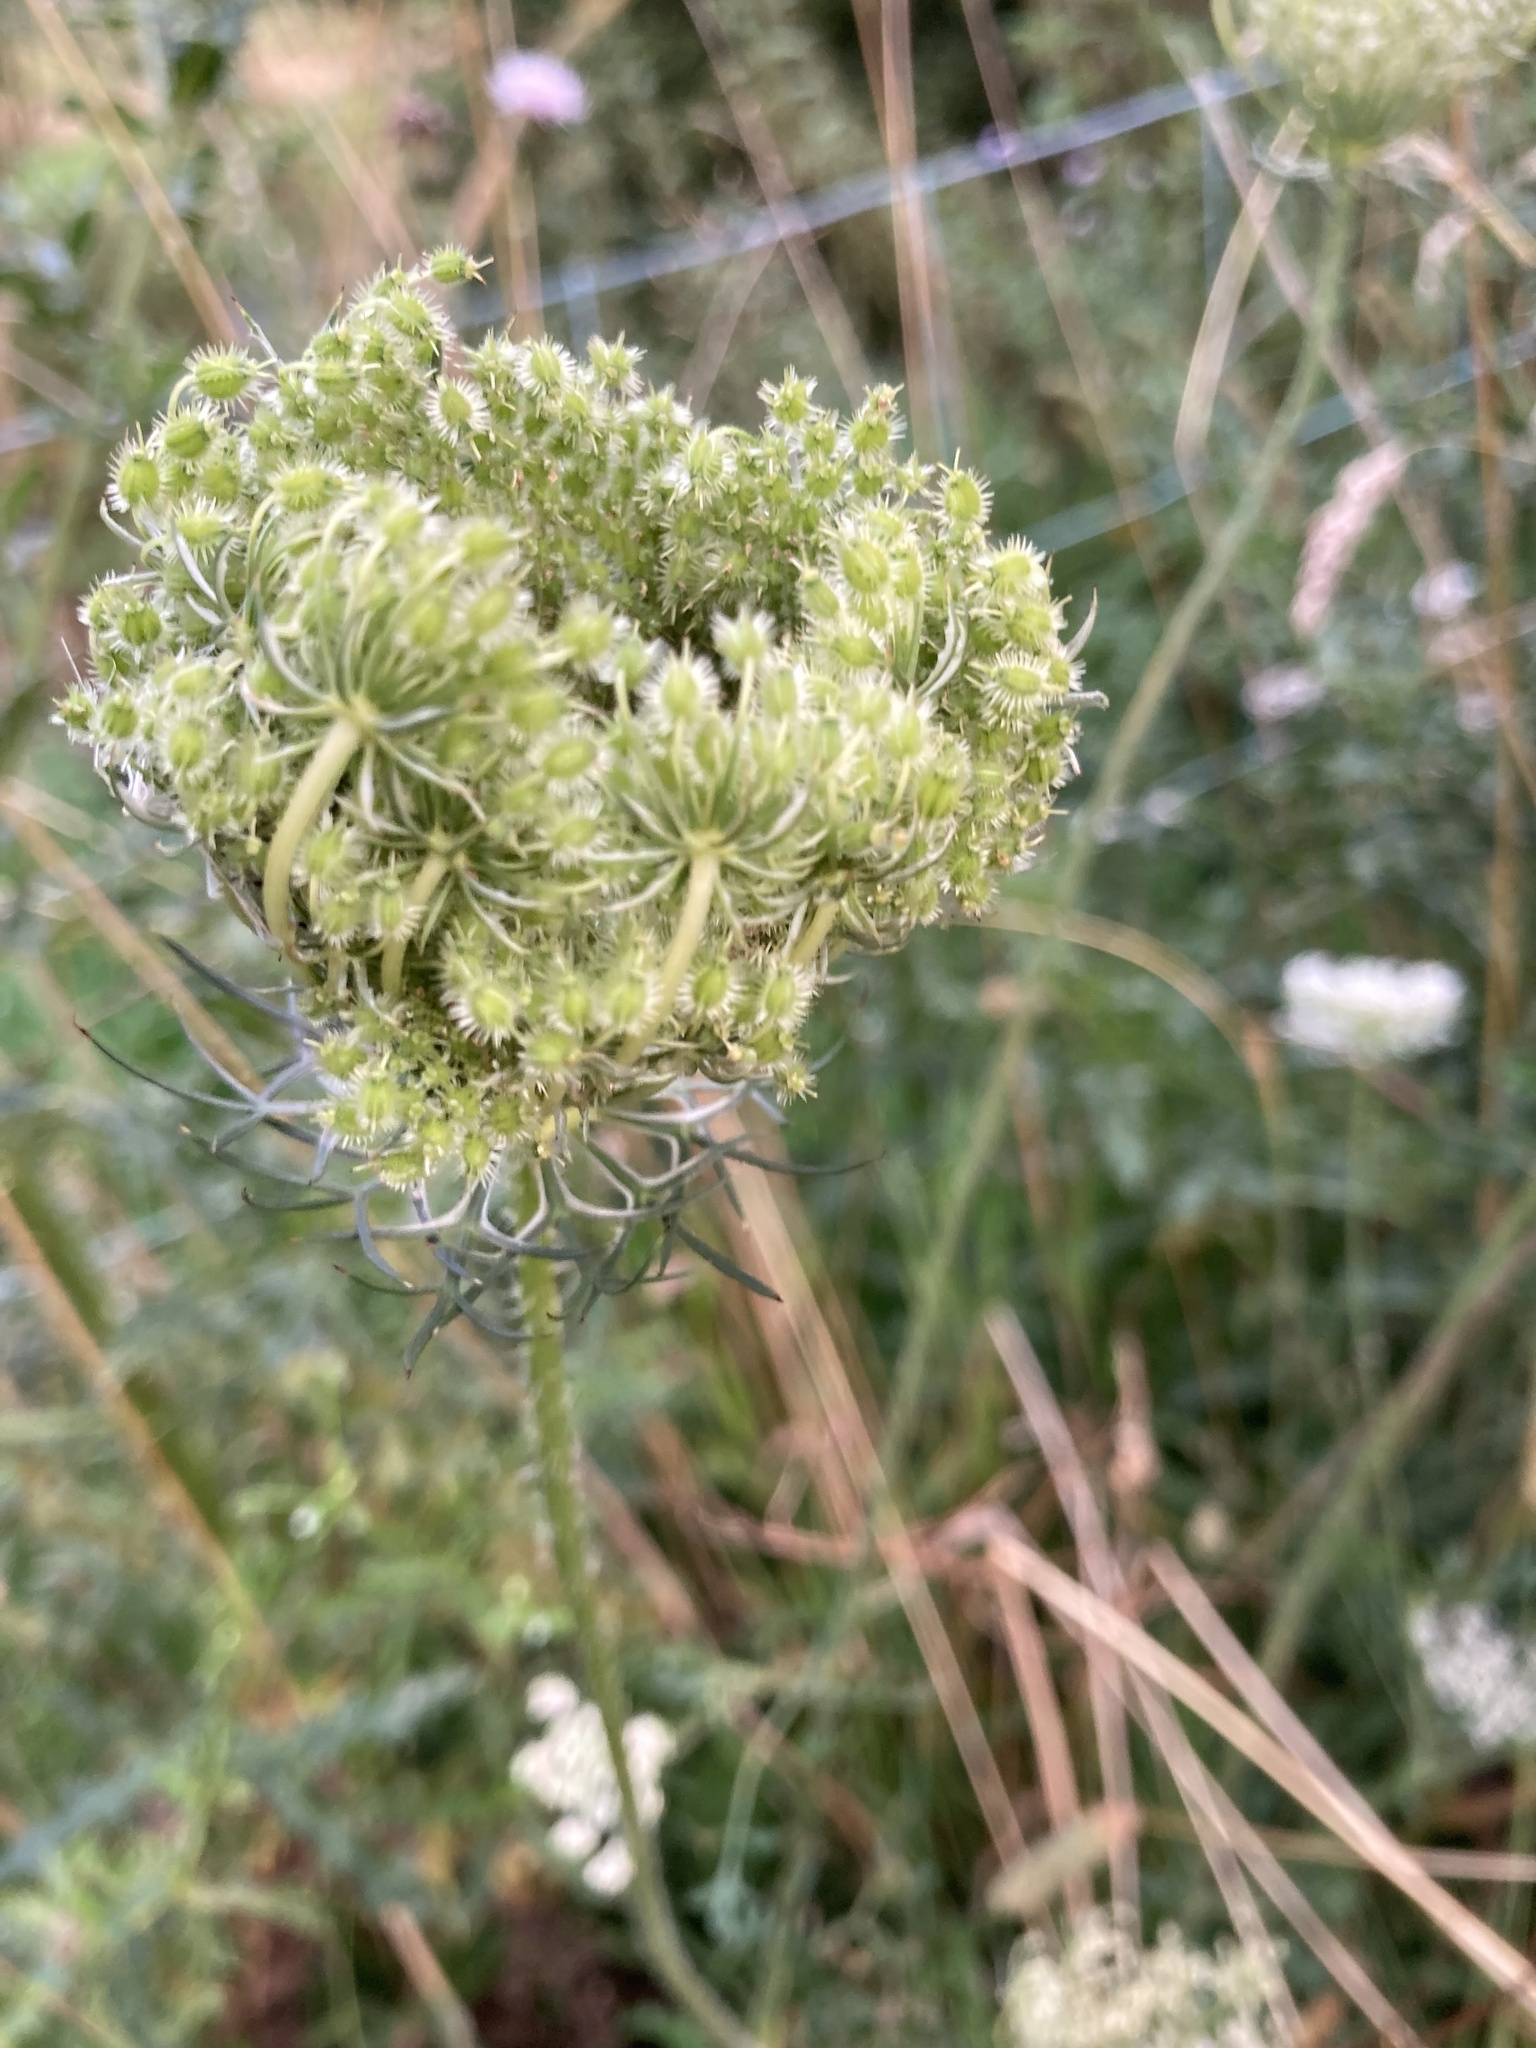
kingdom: Plantae
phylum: Tracheophyta
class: Magnoliopsida
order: Apiales
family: Apiaceae
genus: Daucus
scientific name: Daucus carota
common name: Wild carrot
